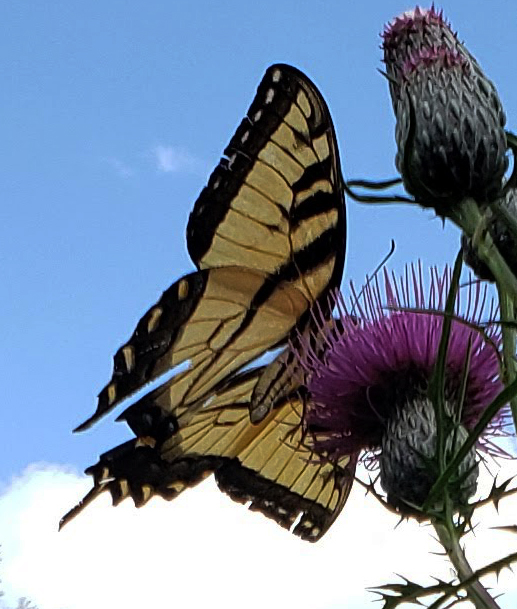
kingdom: Animalia
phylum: Arthropoda
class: Insecta
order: Lepidoptera
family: Papilionidae
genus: Papilio
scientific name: Papilio glaucus
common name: Tiger swallowtail
